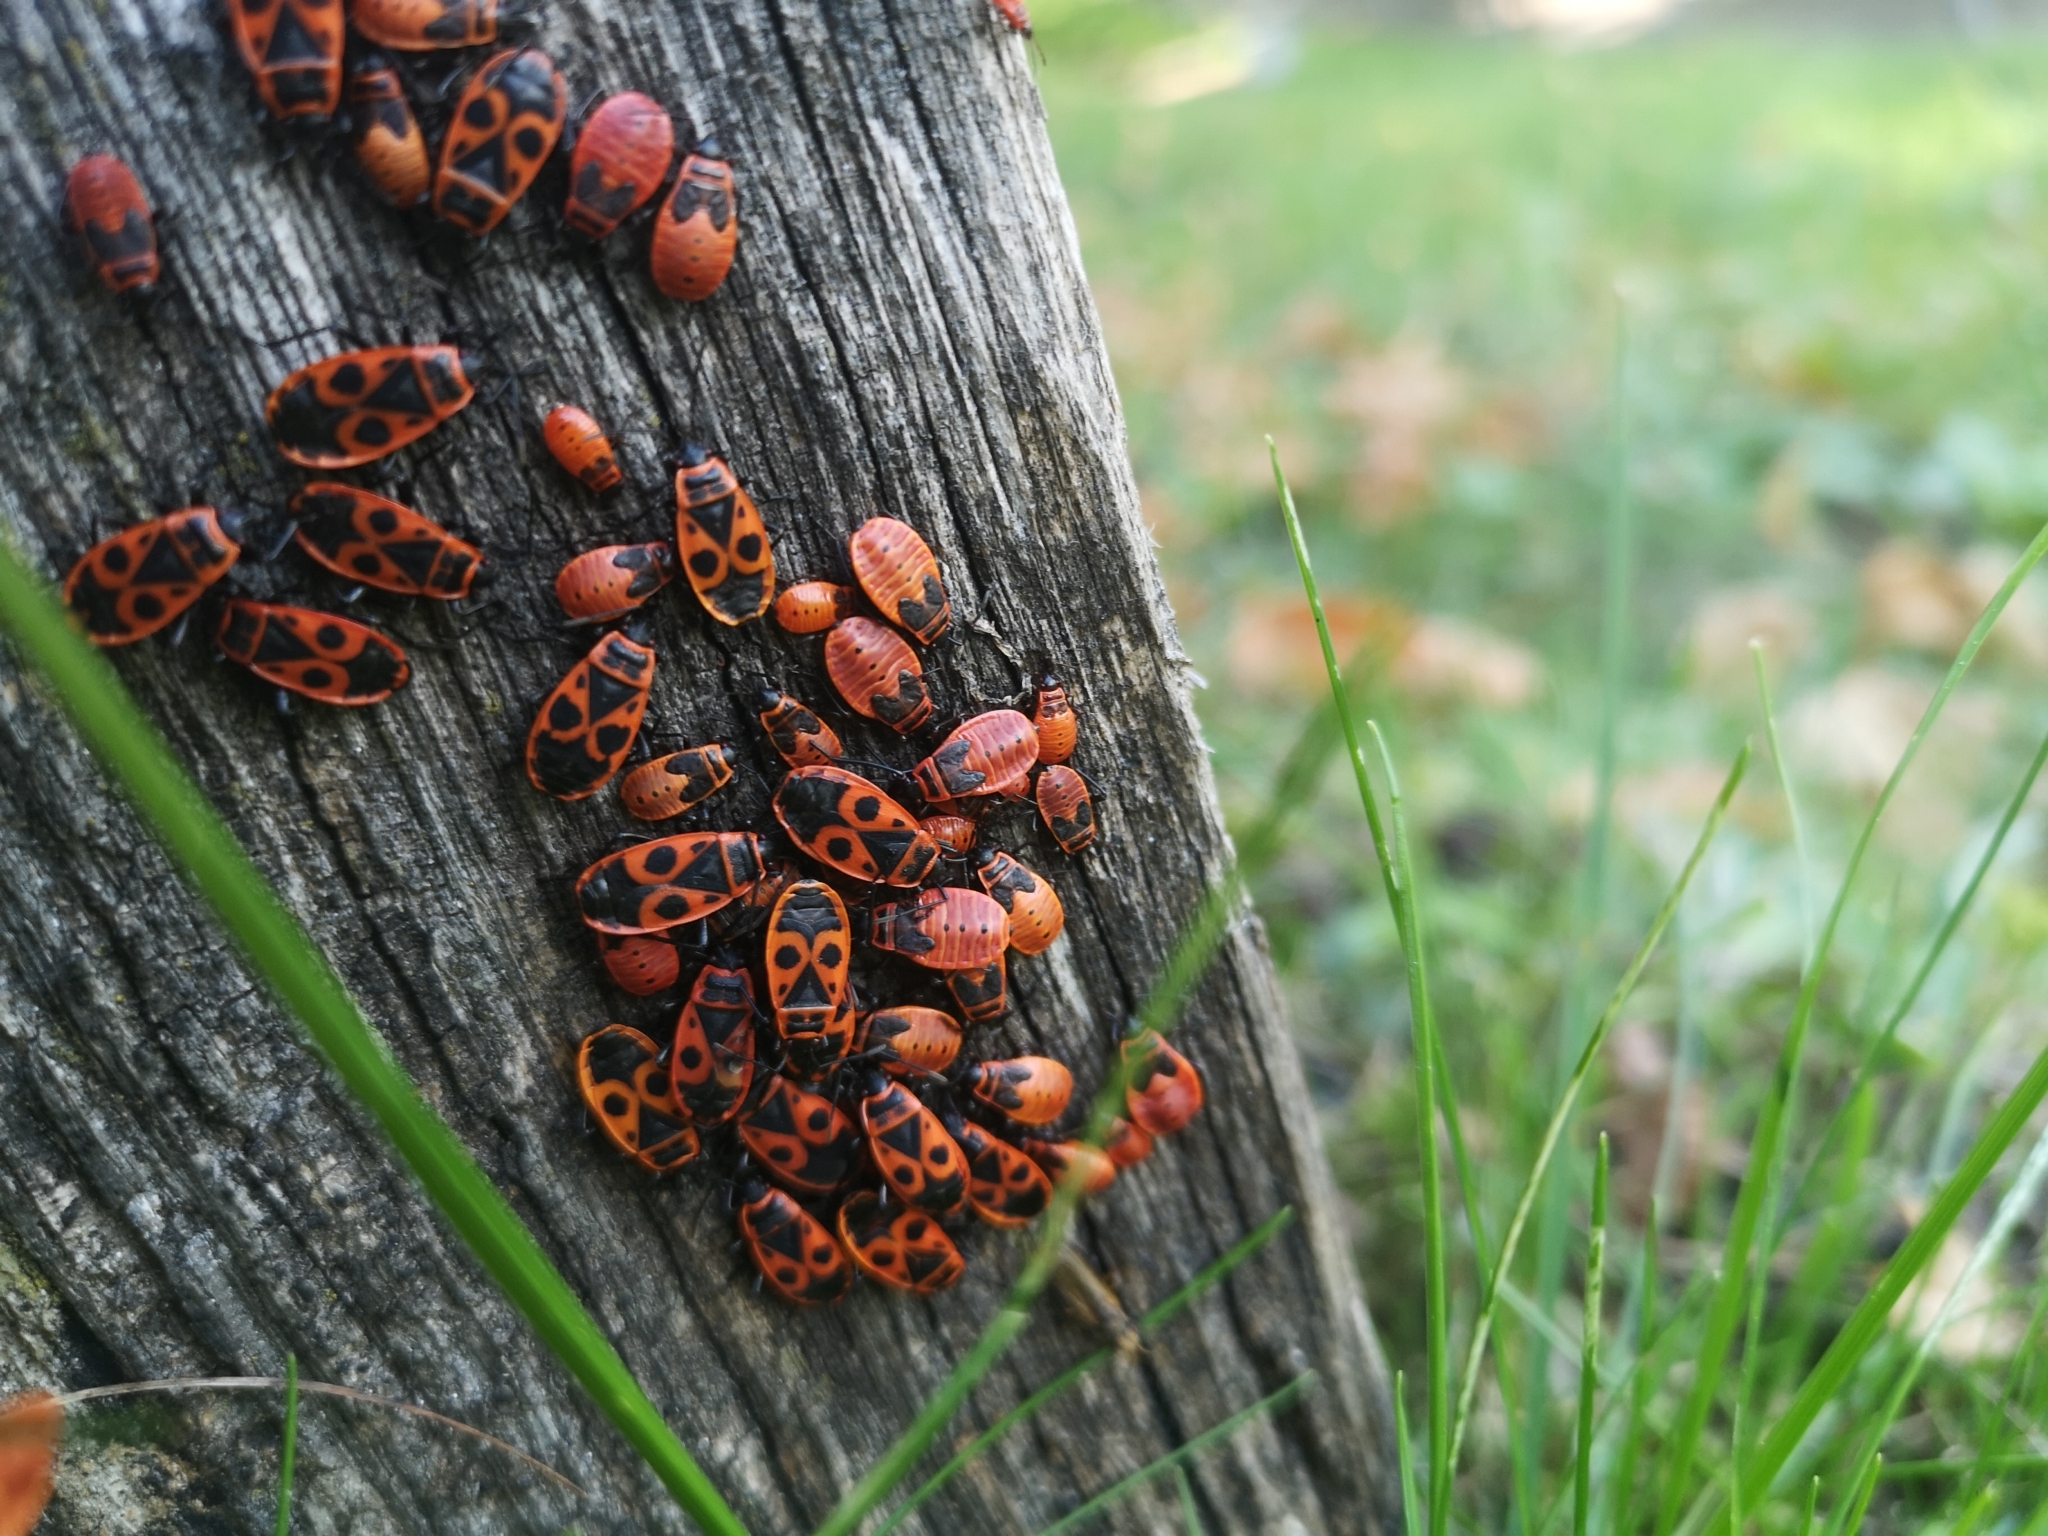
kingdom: Animalia
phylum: Arthropoda
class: Insecta
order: Hemiptera
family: Pyrrhocoridae
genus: Pyrrhocoris
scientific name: Pyrrhocoris apterus
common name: Firebug
